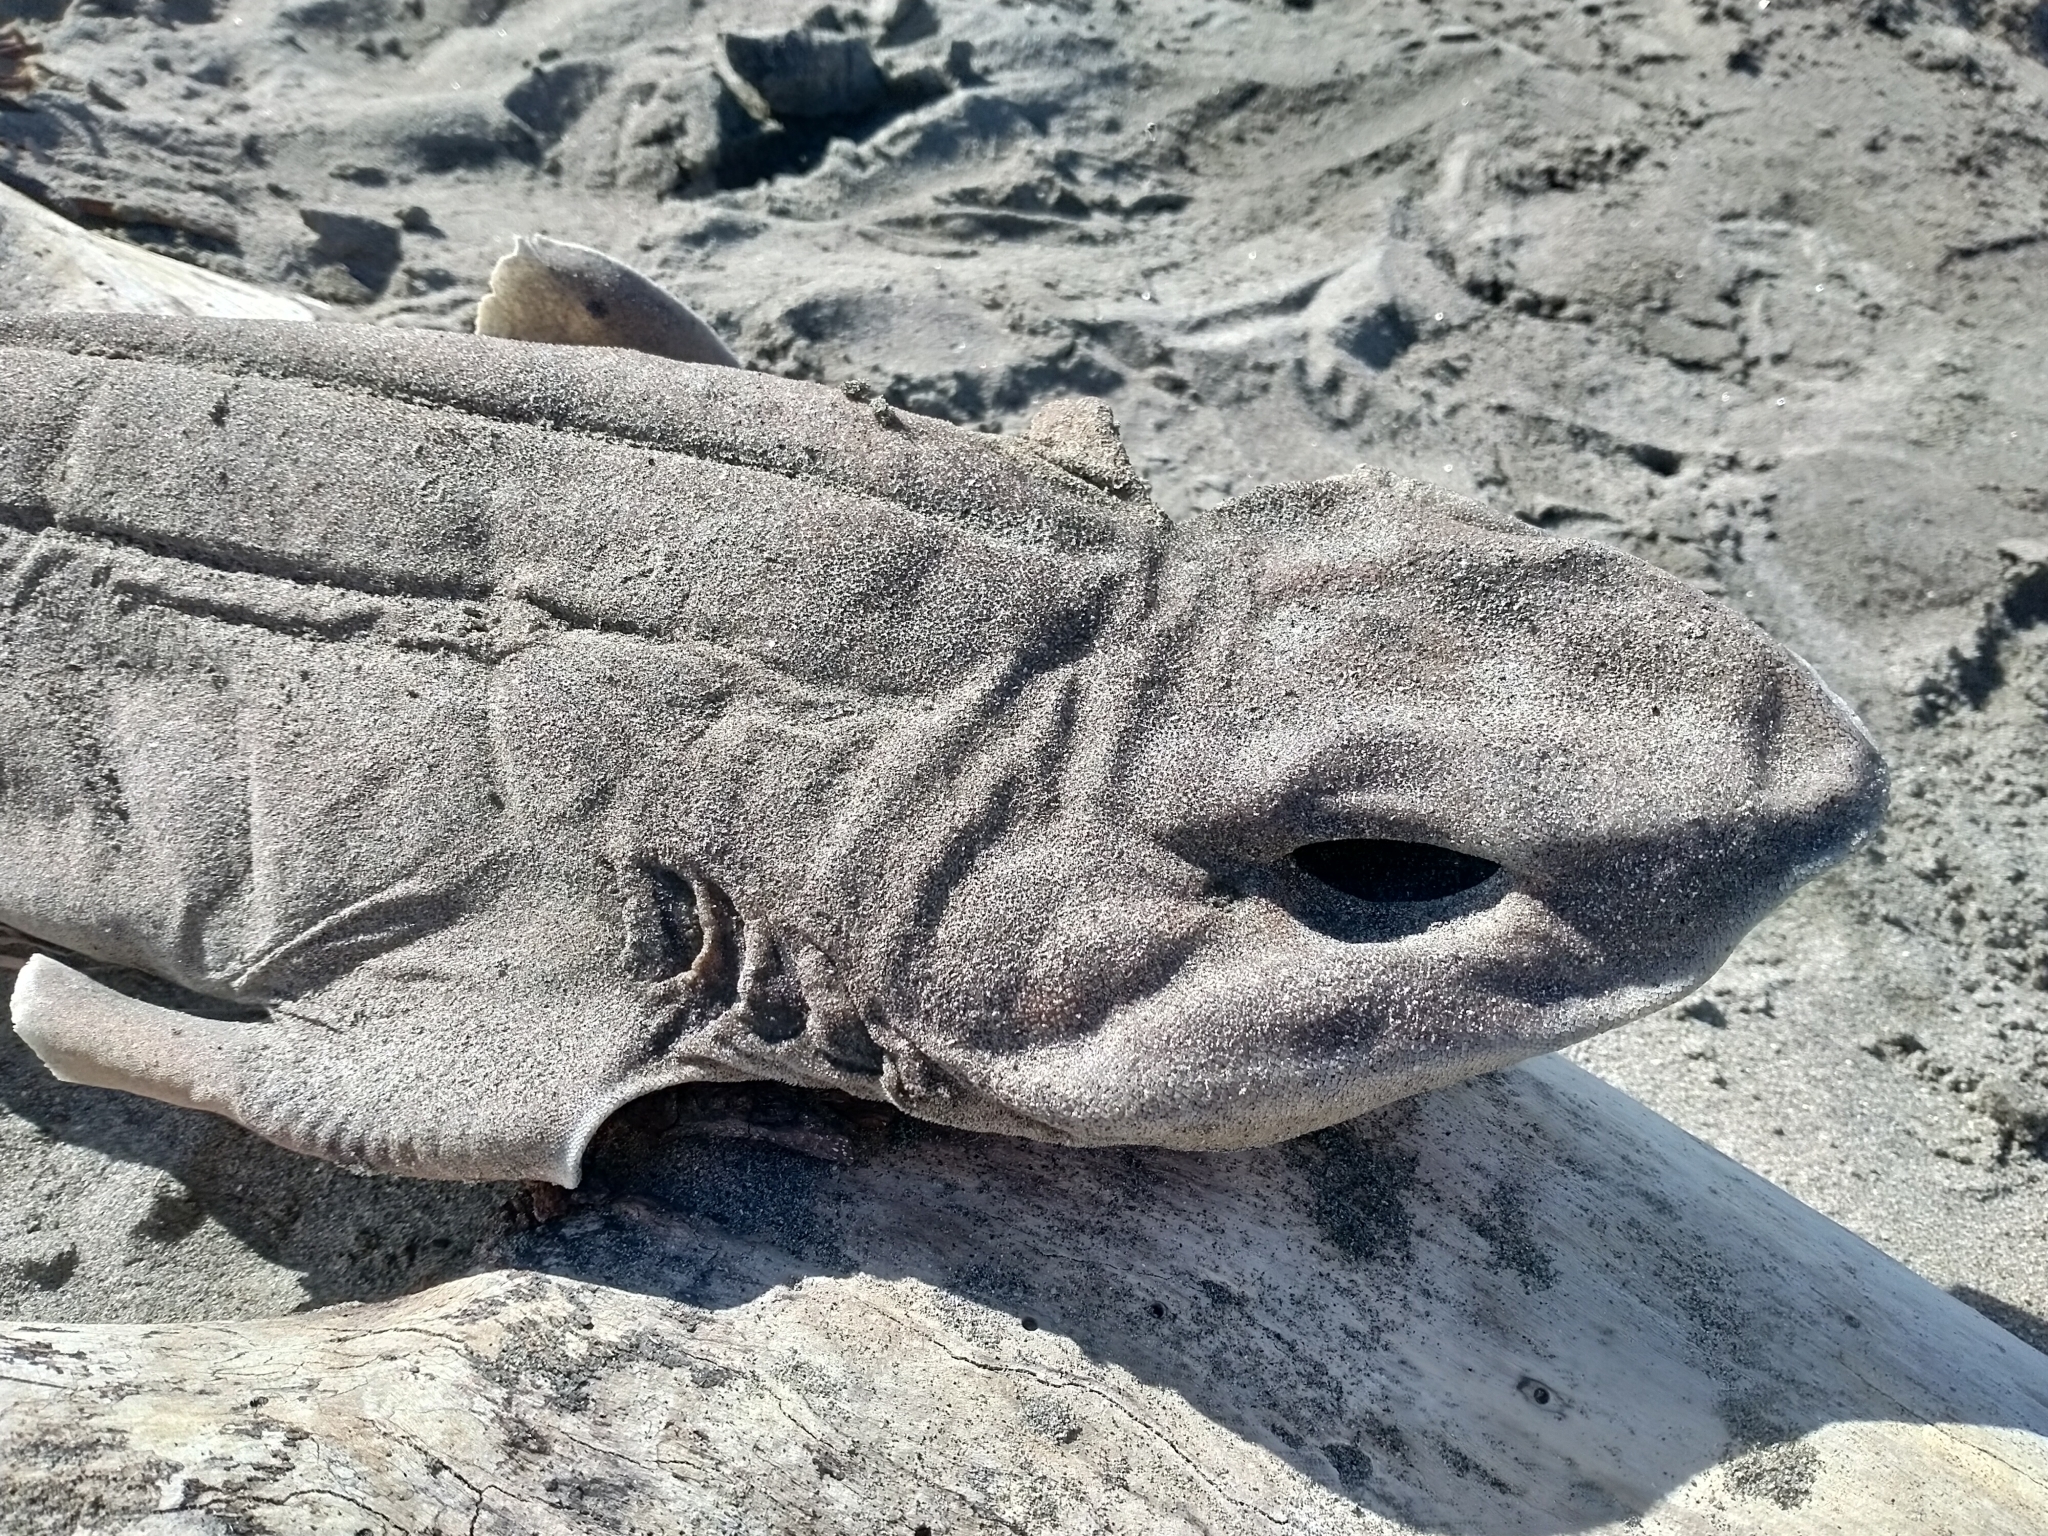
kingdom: Animalia
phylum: Chordata
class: Elasmobranchii
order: Carcharhiniformes
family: Scyliorhinidae
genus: Cephaloscyllium
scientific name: Cephaloscyllium isabellum
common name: Carpet shark
